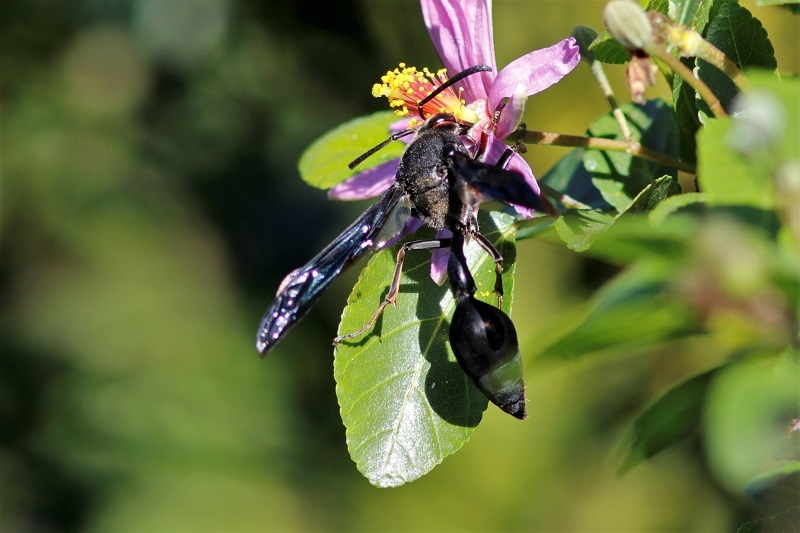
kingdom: Animalia
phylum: Arthropoda
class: Insecta
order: Hymenoptera
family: Eumenidae
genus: Delta
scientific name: Delta bonellii
